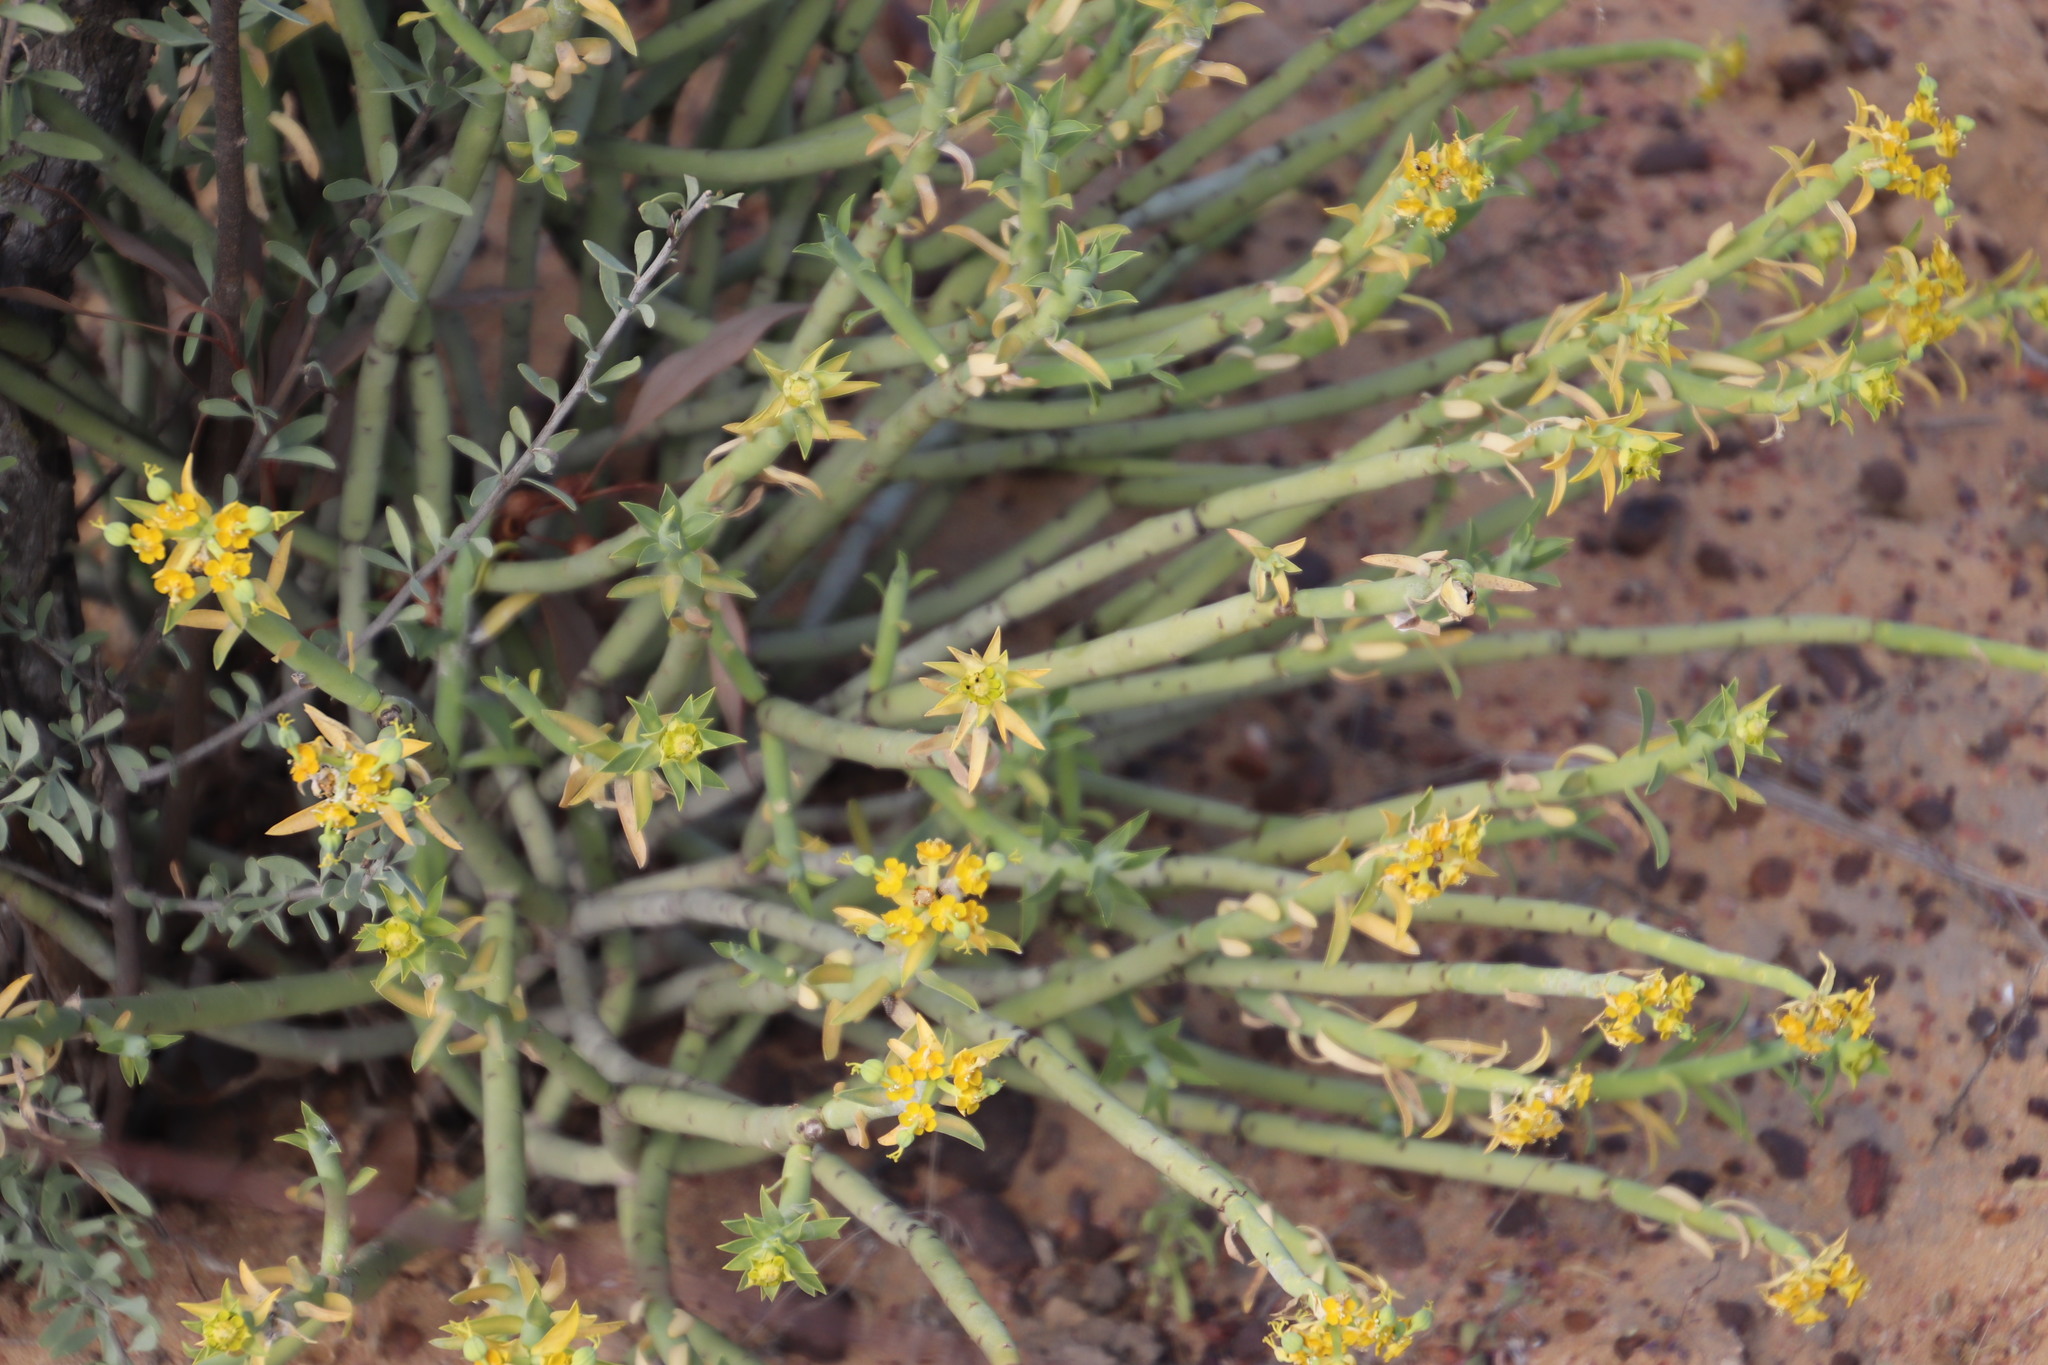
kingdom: Plantae
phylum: Tracheophyta
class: Magnoliopsida
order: Malpighiales
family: Euphorbiaceae
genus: Euphorbia
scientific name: Euphorbia mauritanica
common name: Jackal's-food
